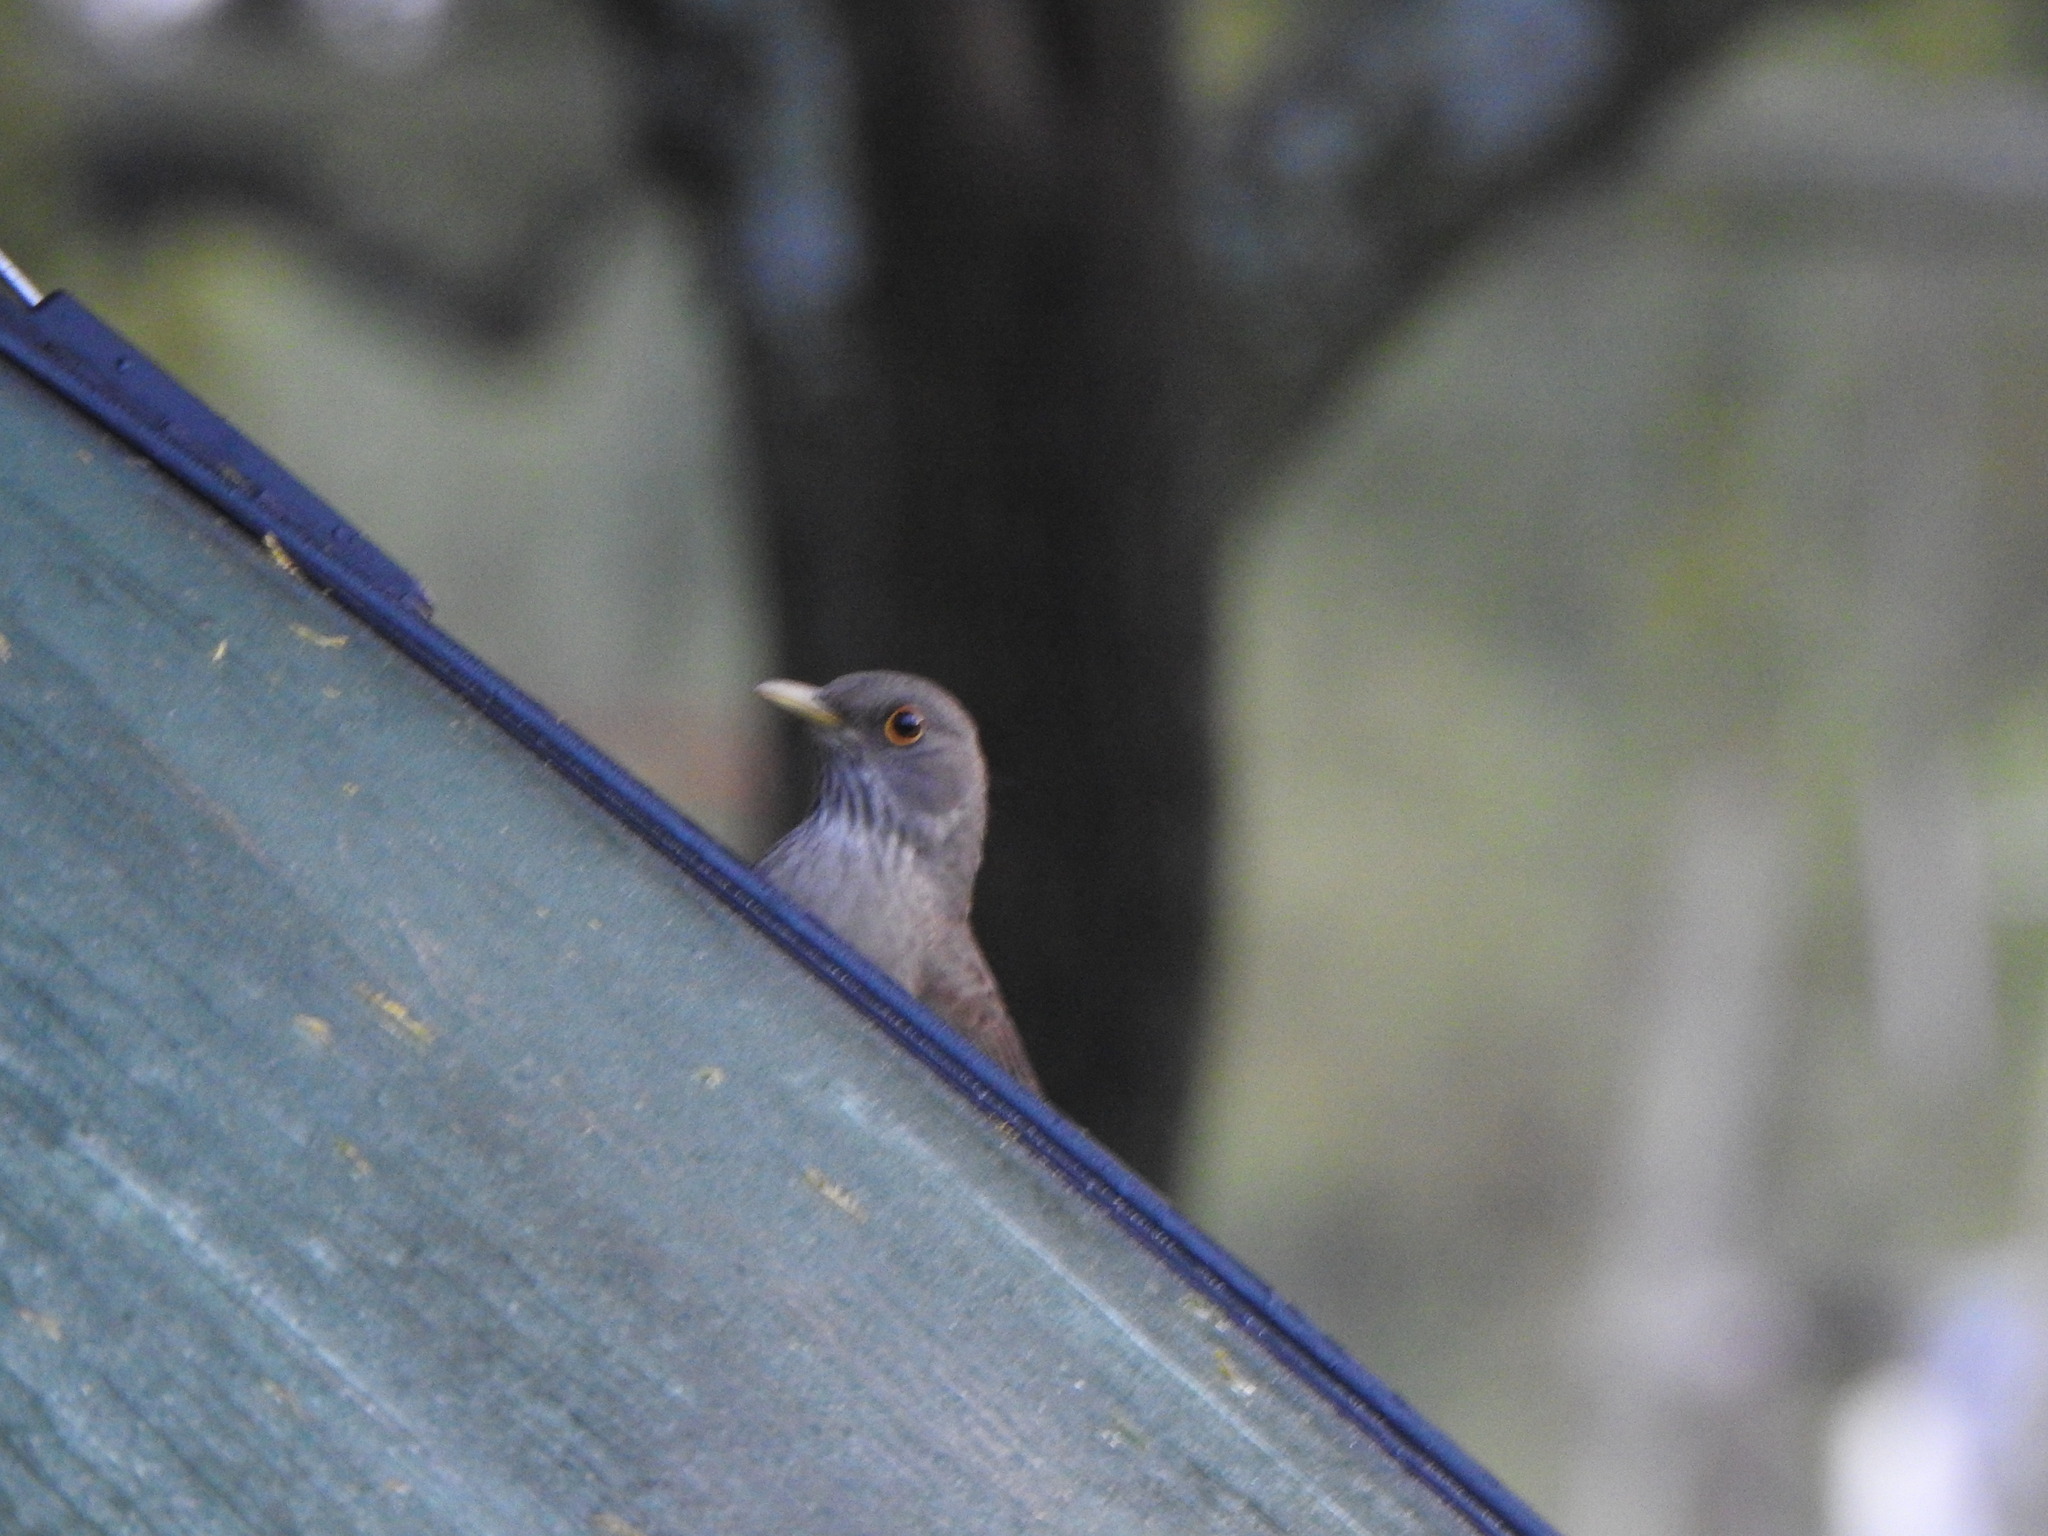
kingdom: Animalia
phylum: Chordata
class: Aves
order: Passeriformes
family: Turdidae
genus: Turdus
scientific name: Turdus rufiventris
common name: Rufous-bellied thrush
